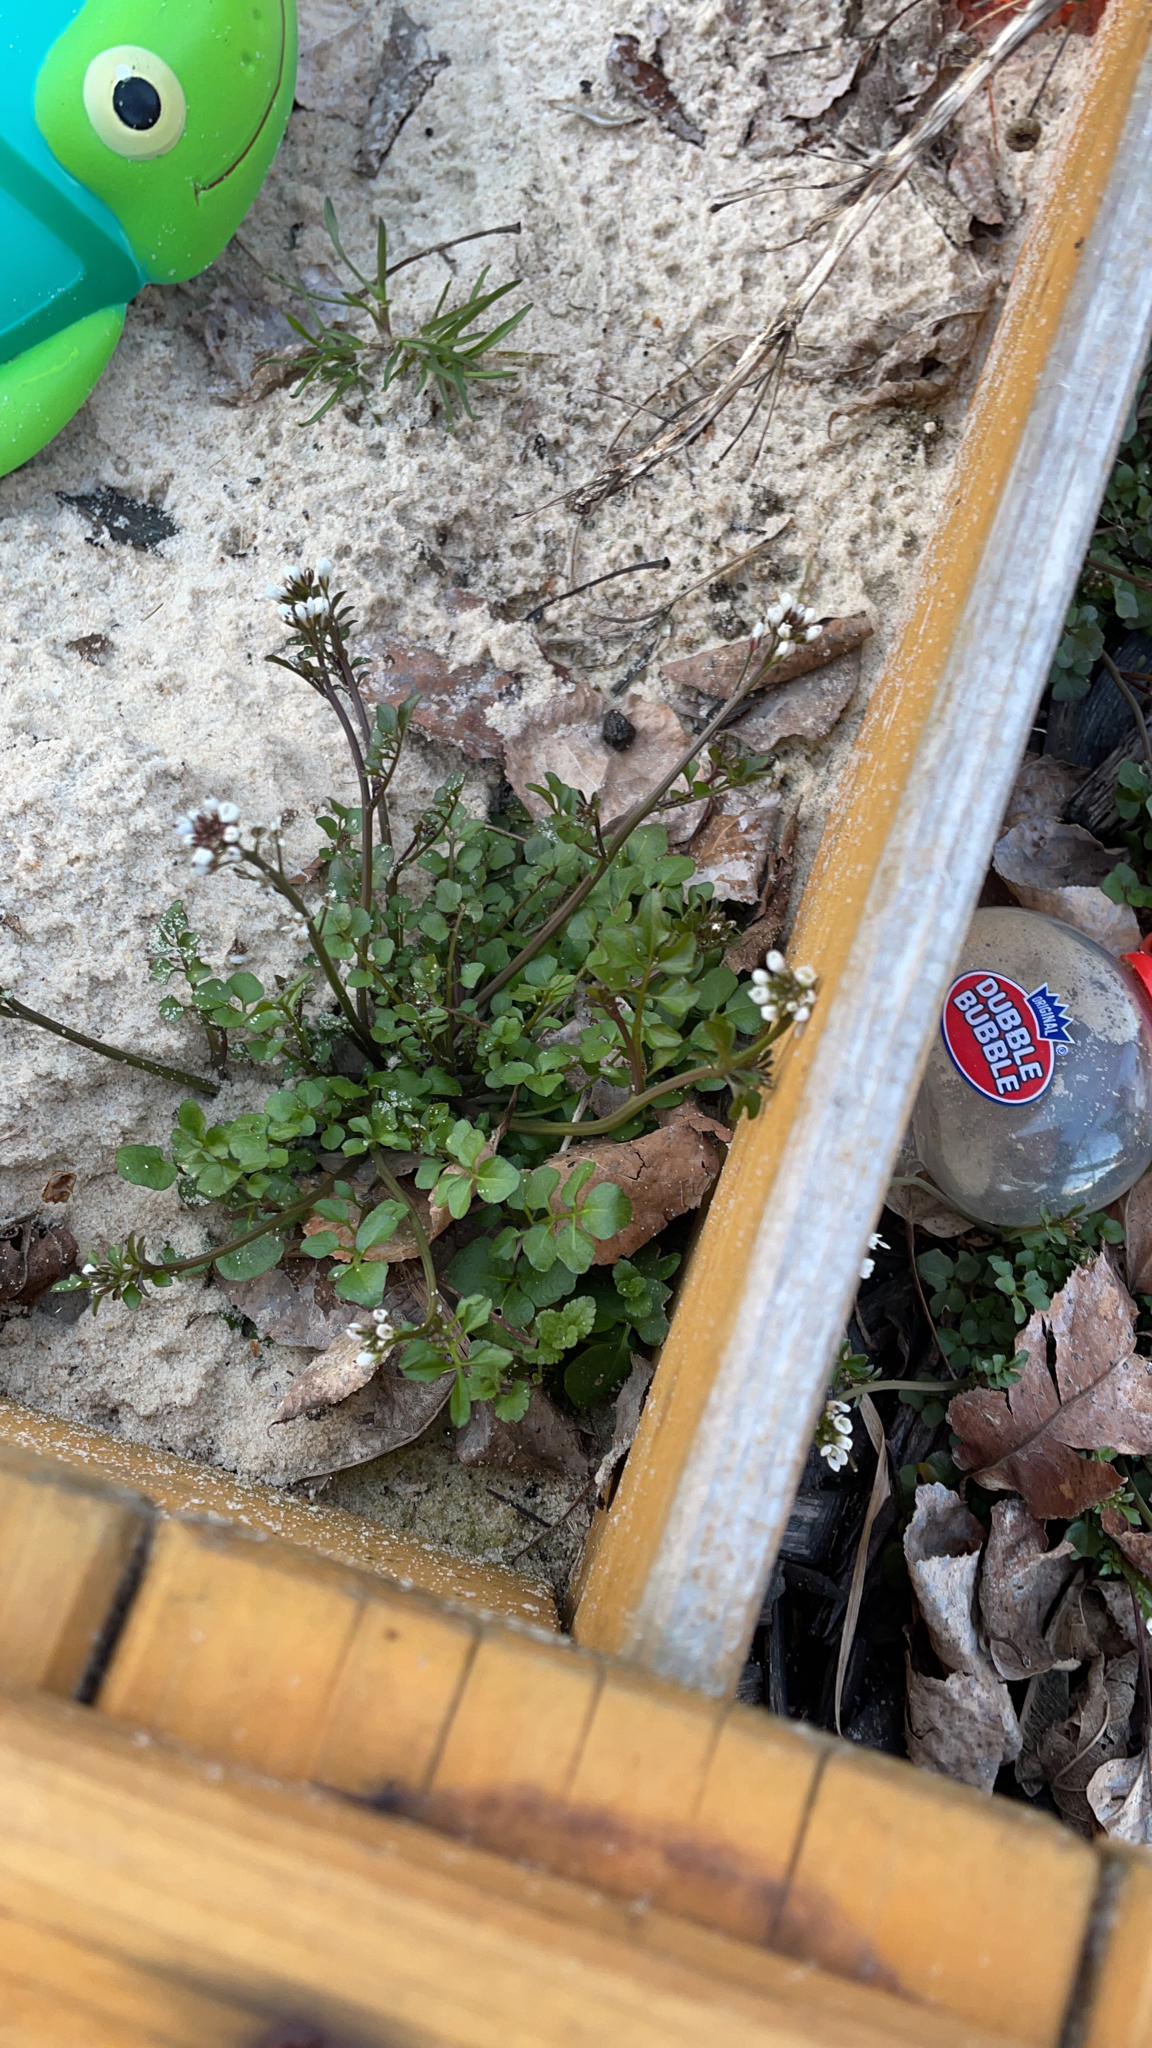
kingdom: Plantae
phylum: Tracheophyta
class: Magnoliopsida
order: Brassicales
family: Brassicaceae
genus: Cardamine
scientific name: Cardamine hirsuta
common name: Hairy bittercress
